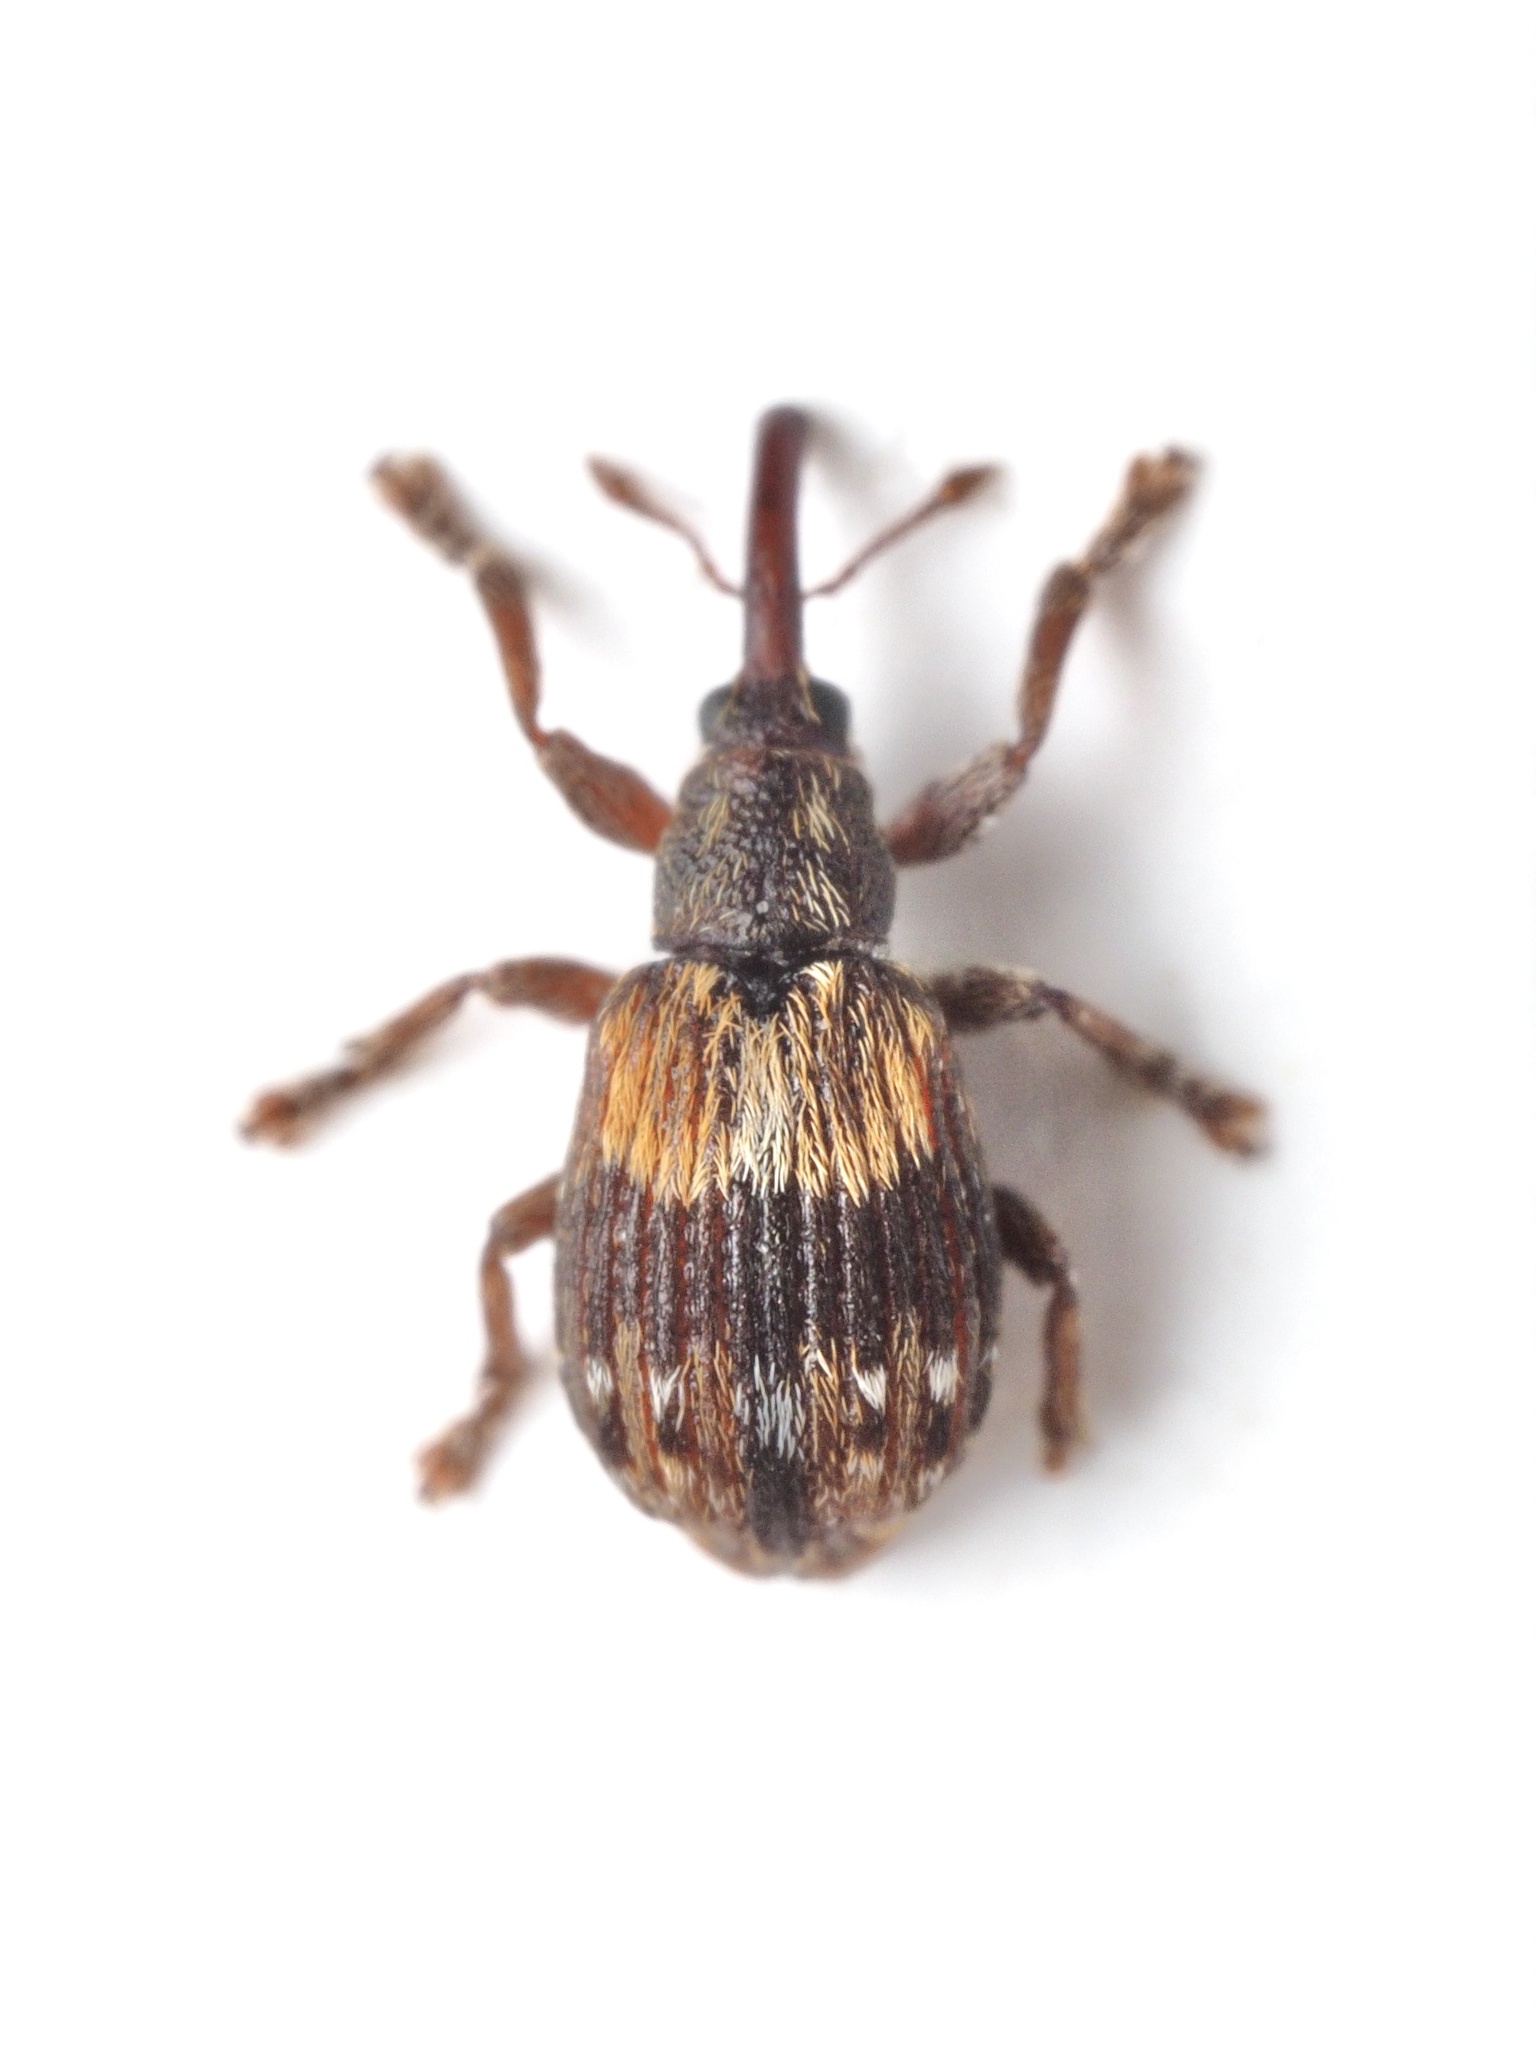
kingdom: Animalia
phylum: Arthropoda
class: Insecta
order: Coleoptera
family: Brentidae
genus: Ixapion
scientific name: Ixapion variegatum
